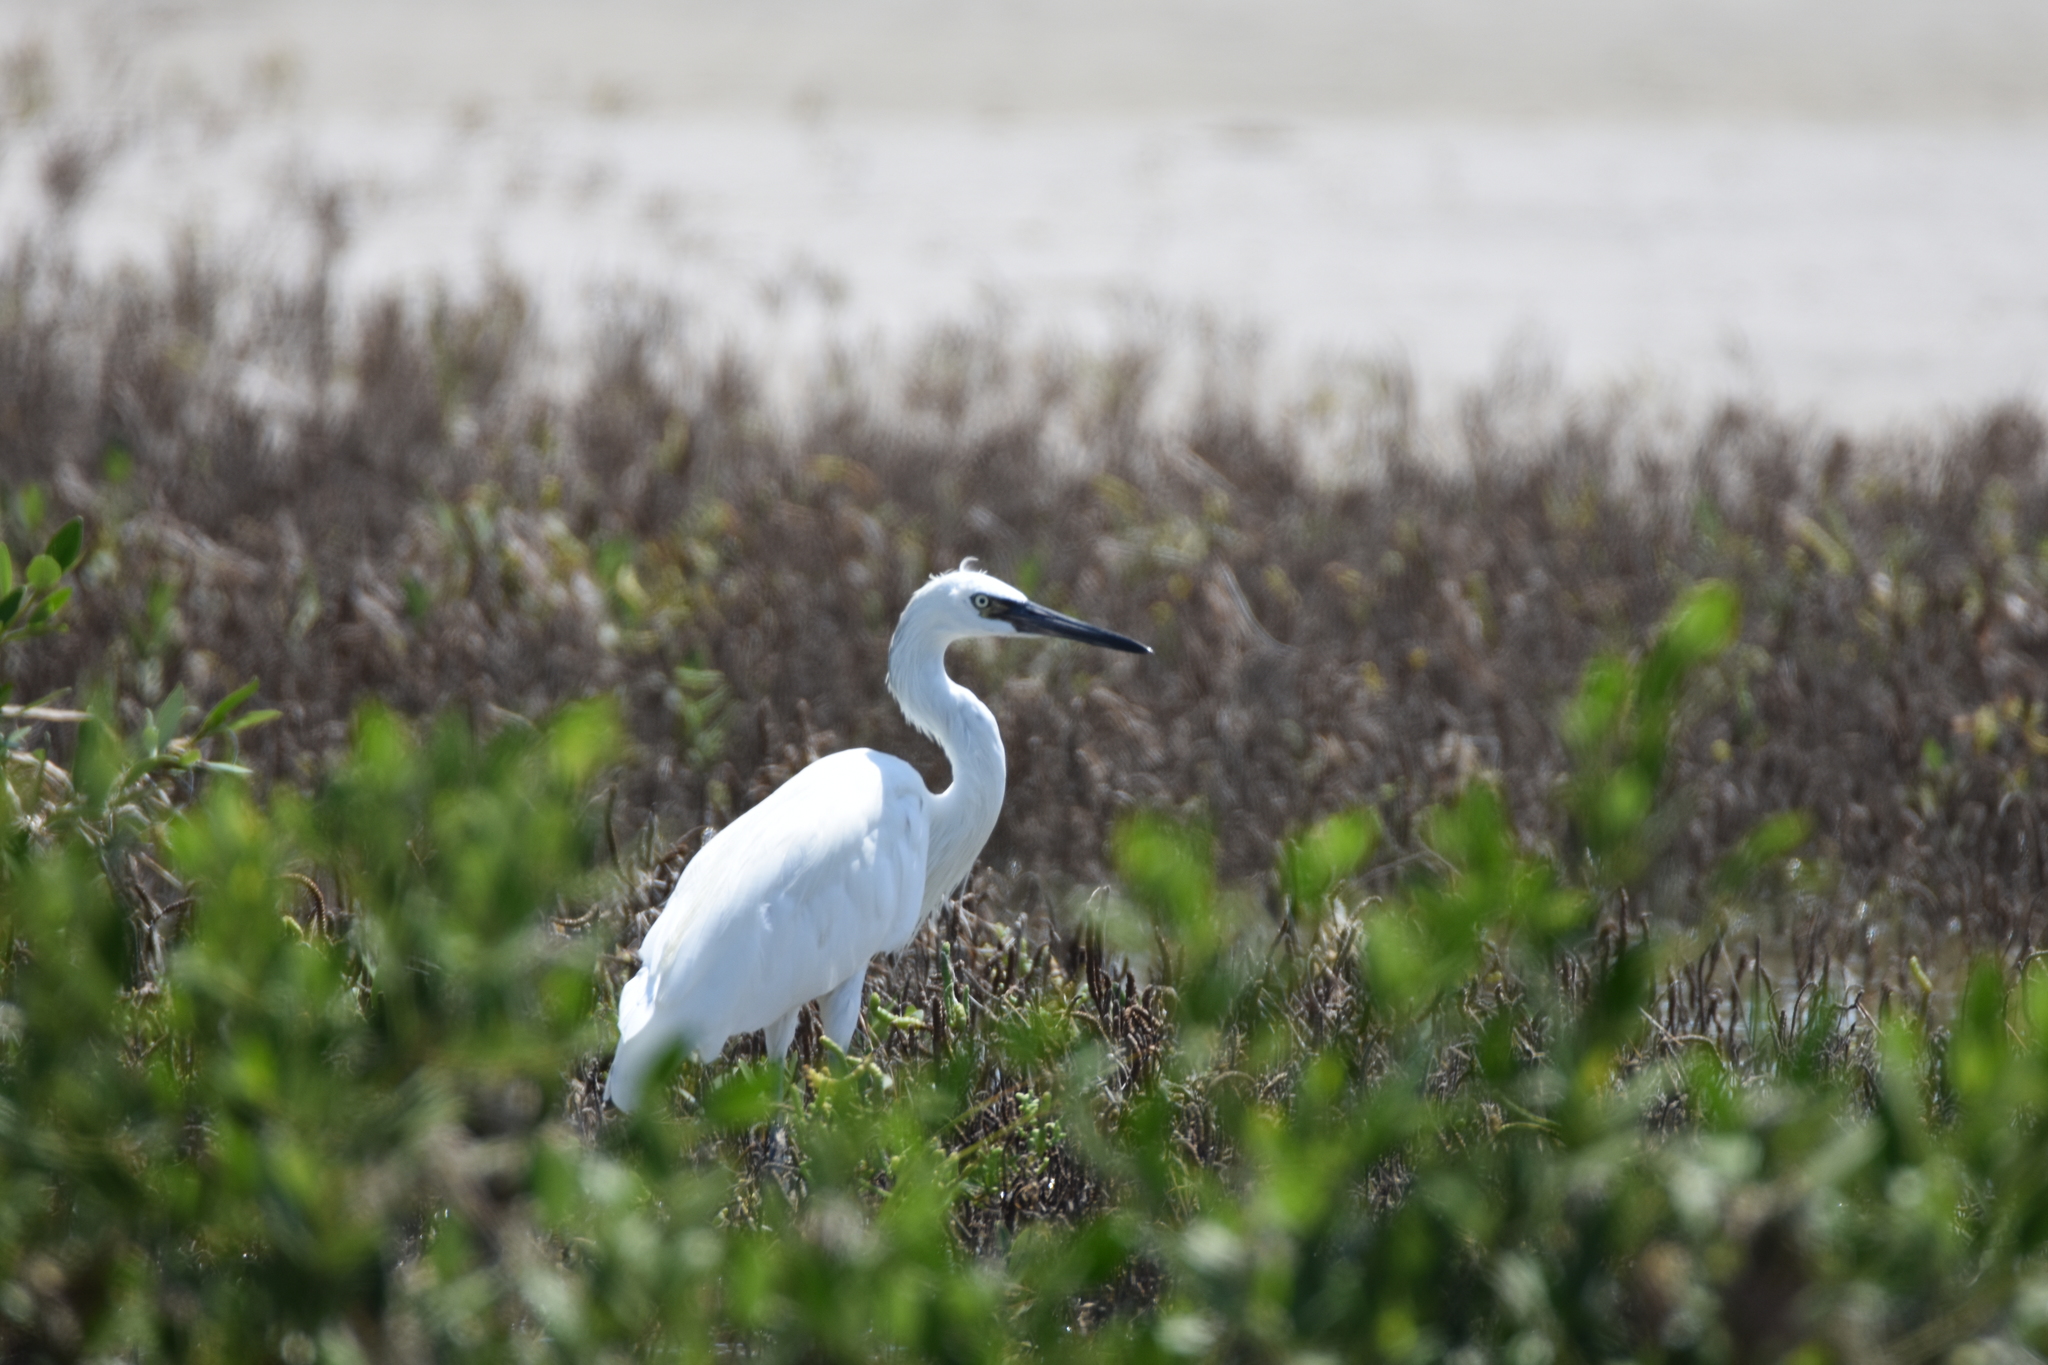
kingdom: Animalia
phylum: Chordata
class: Aves
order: Pelecaniformes
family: Ardeidae
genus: Egretta
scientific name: Egretta rufescens
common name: Reddish egret
